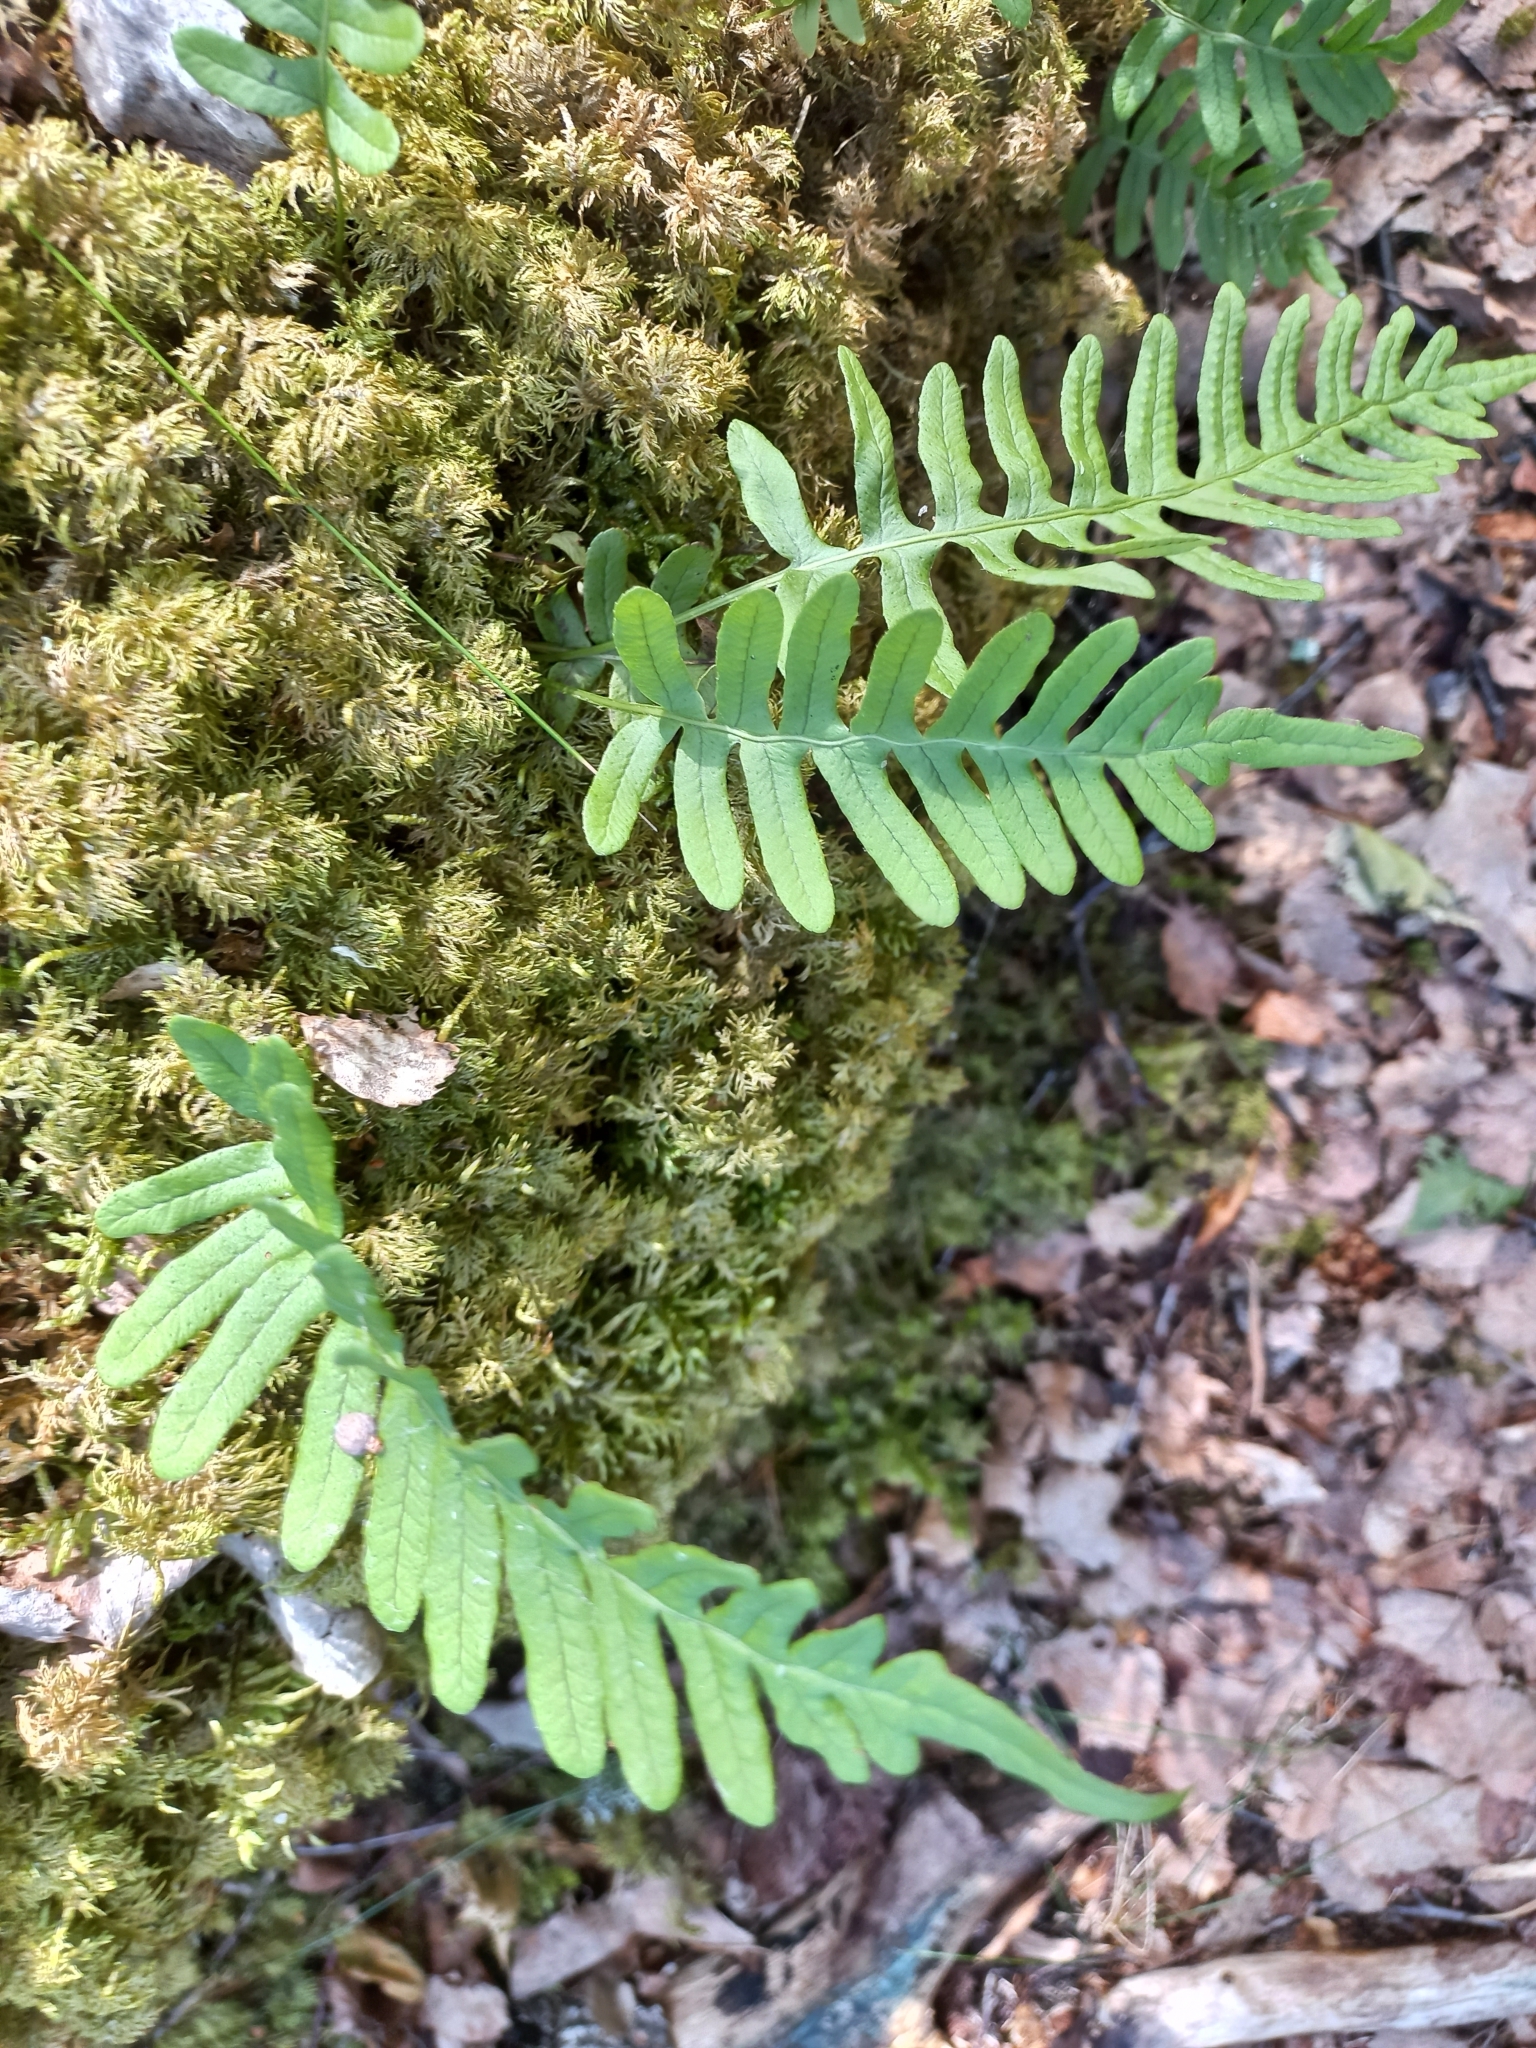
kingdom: Plantae
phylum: Tracheophyta
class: Polypodiopsida
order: Polypodiales
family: Polypodiaceae
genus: Polypodium
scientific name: Polypodium vulgare
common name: Common polypody
